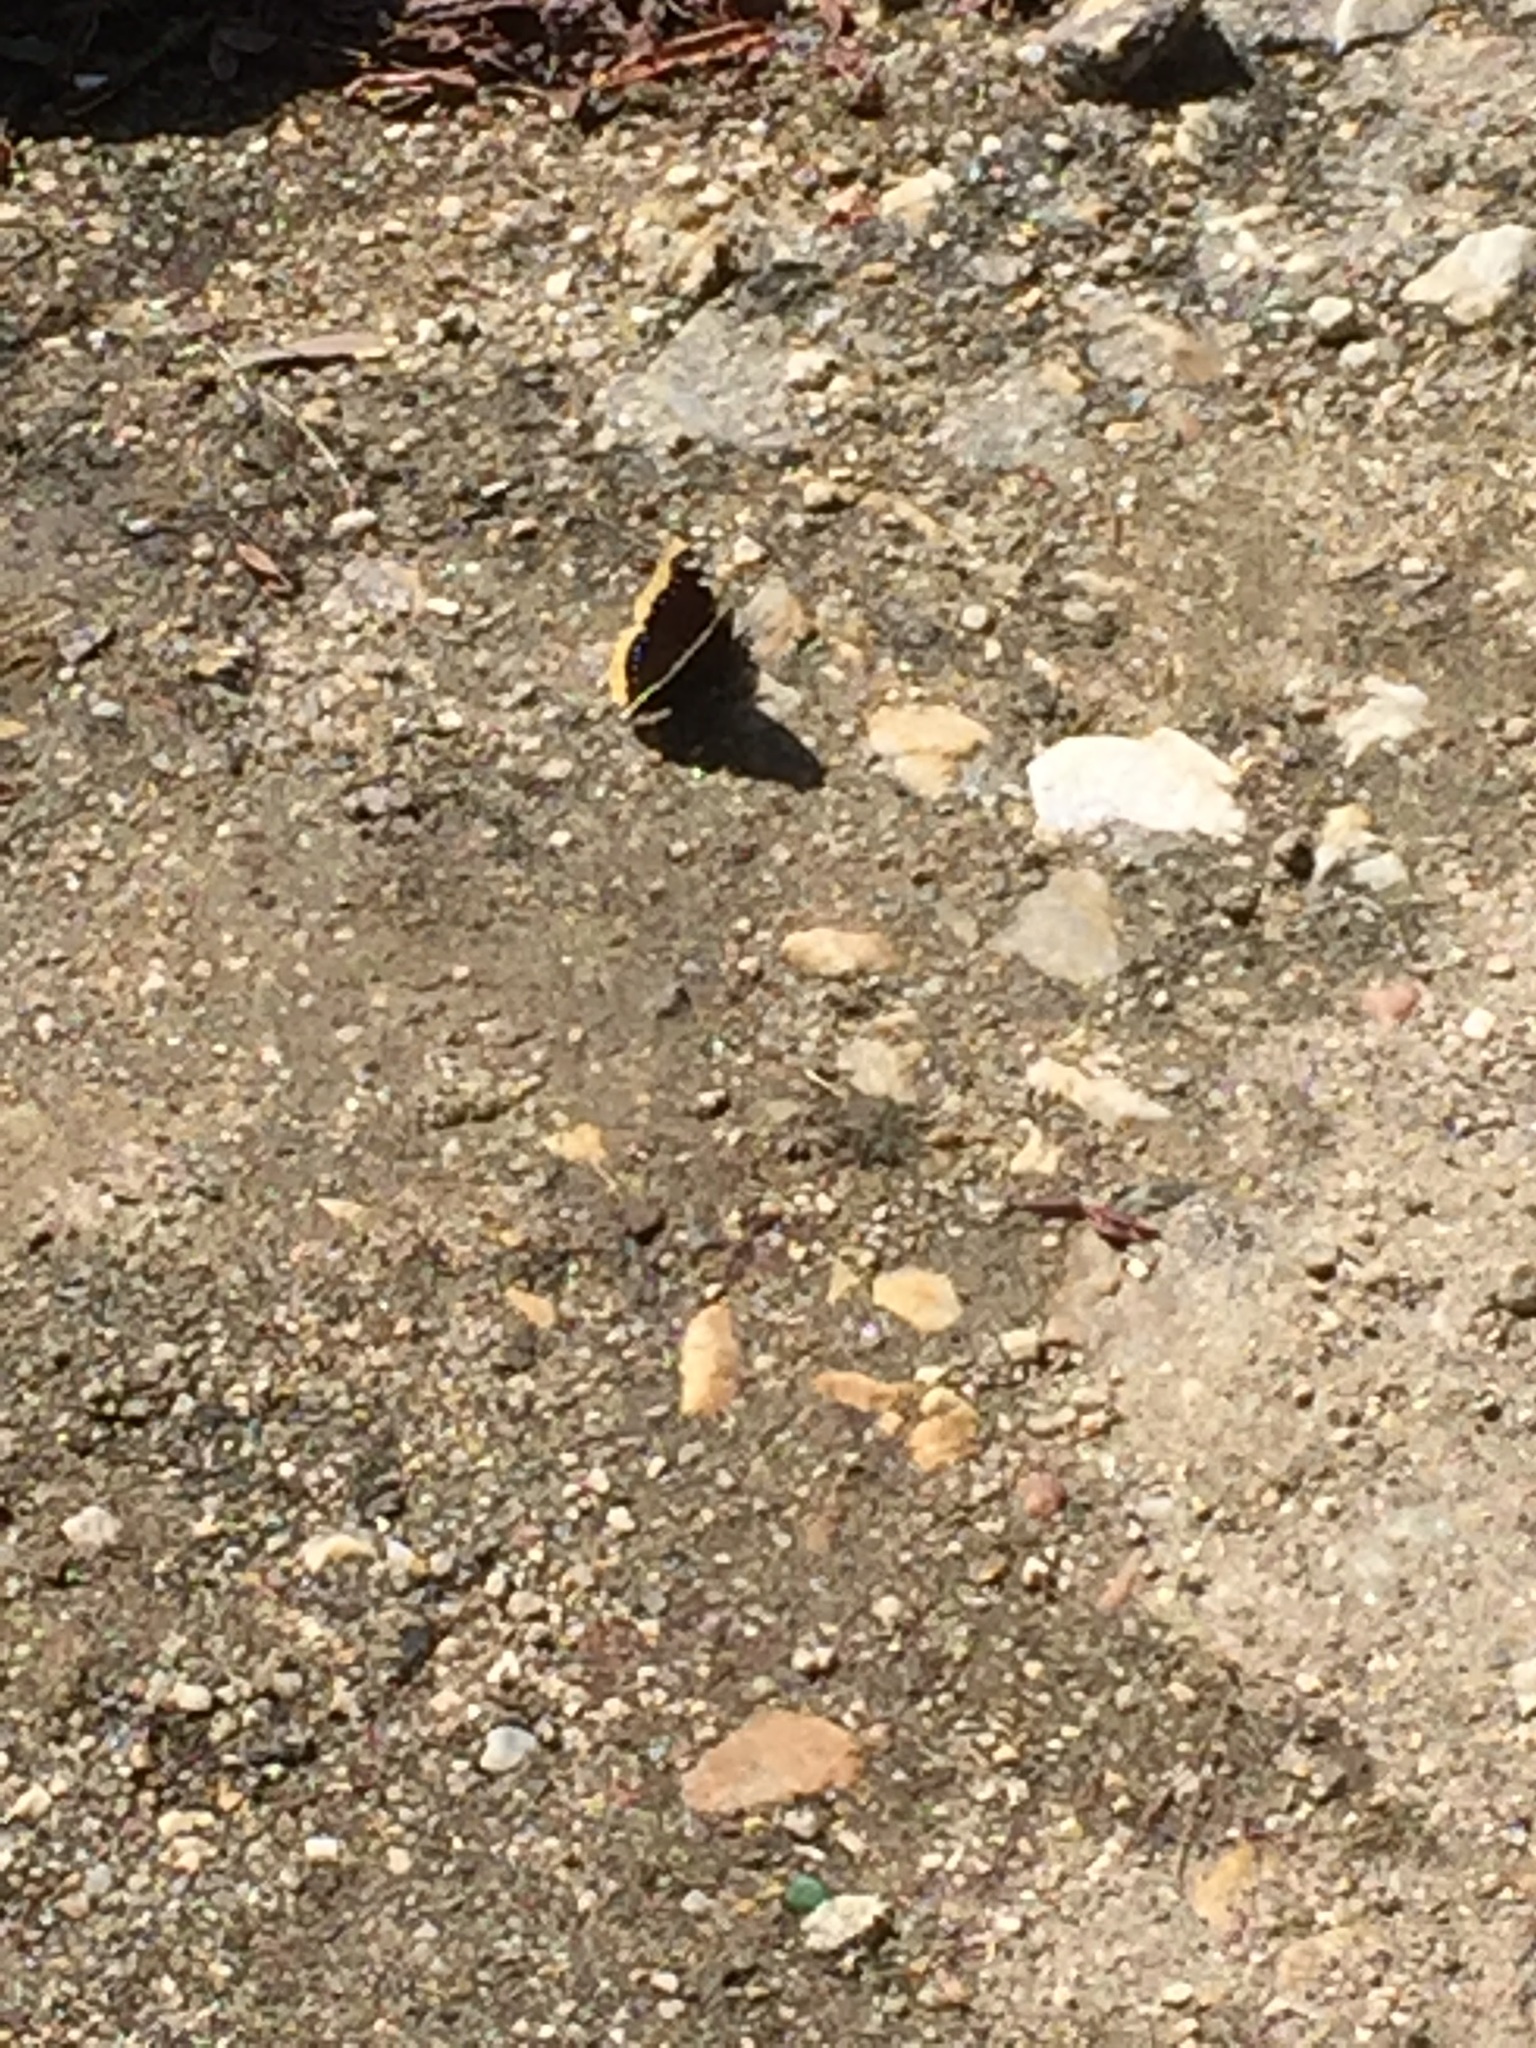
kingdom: Animalia
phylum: Arthropoda
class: Insecta
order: Lepidoptera
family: Nymphalidae
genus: Nymphalis
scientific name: Nymphalis antiopa
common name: Camberwell beauty
